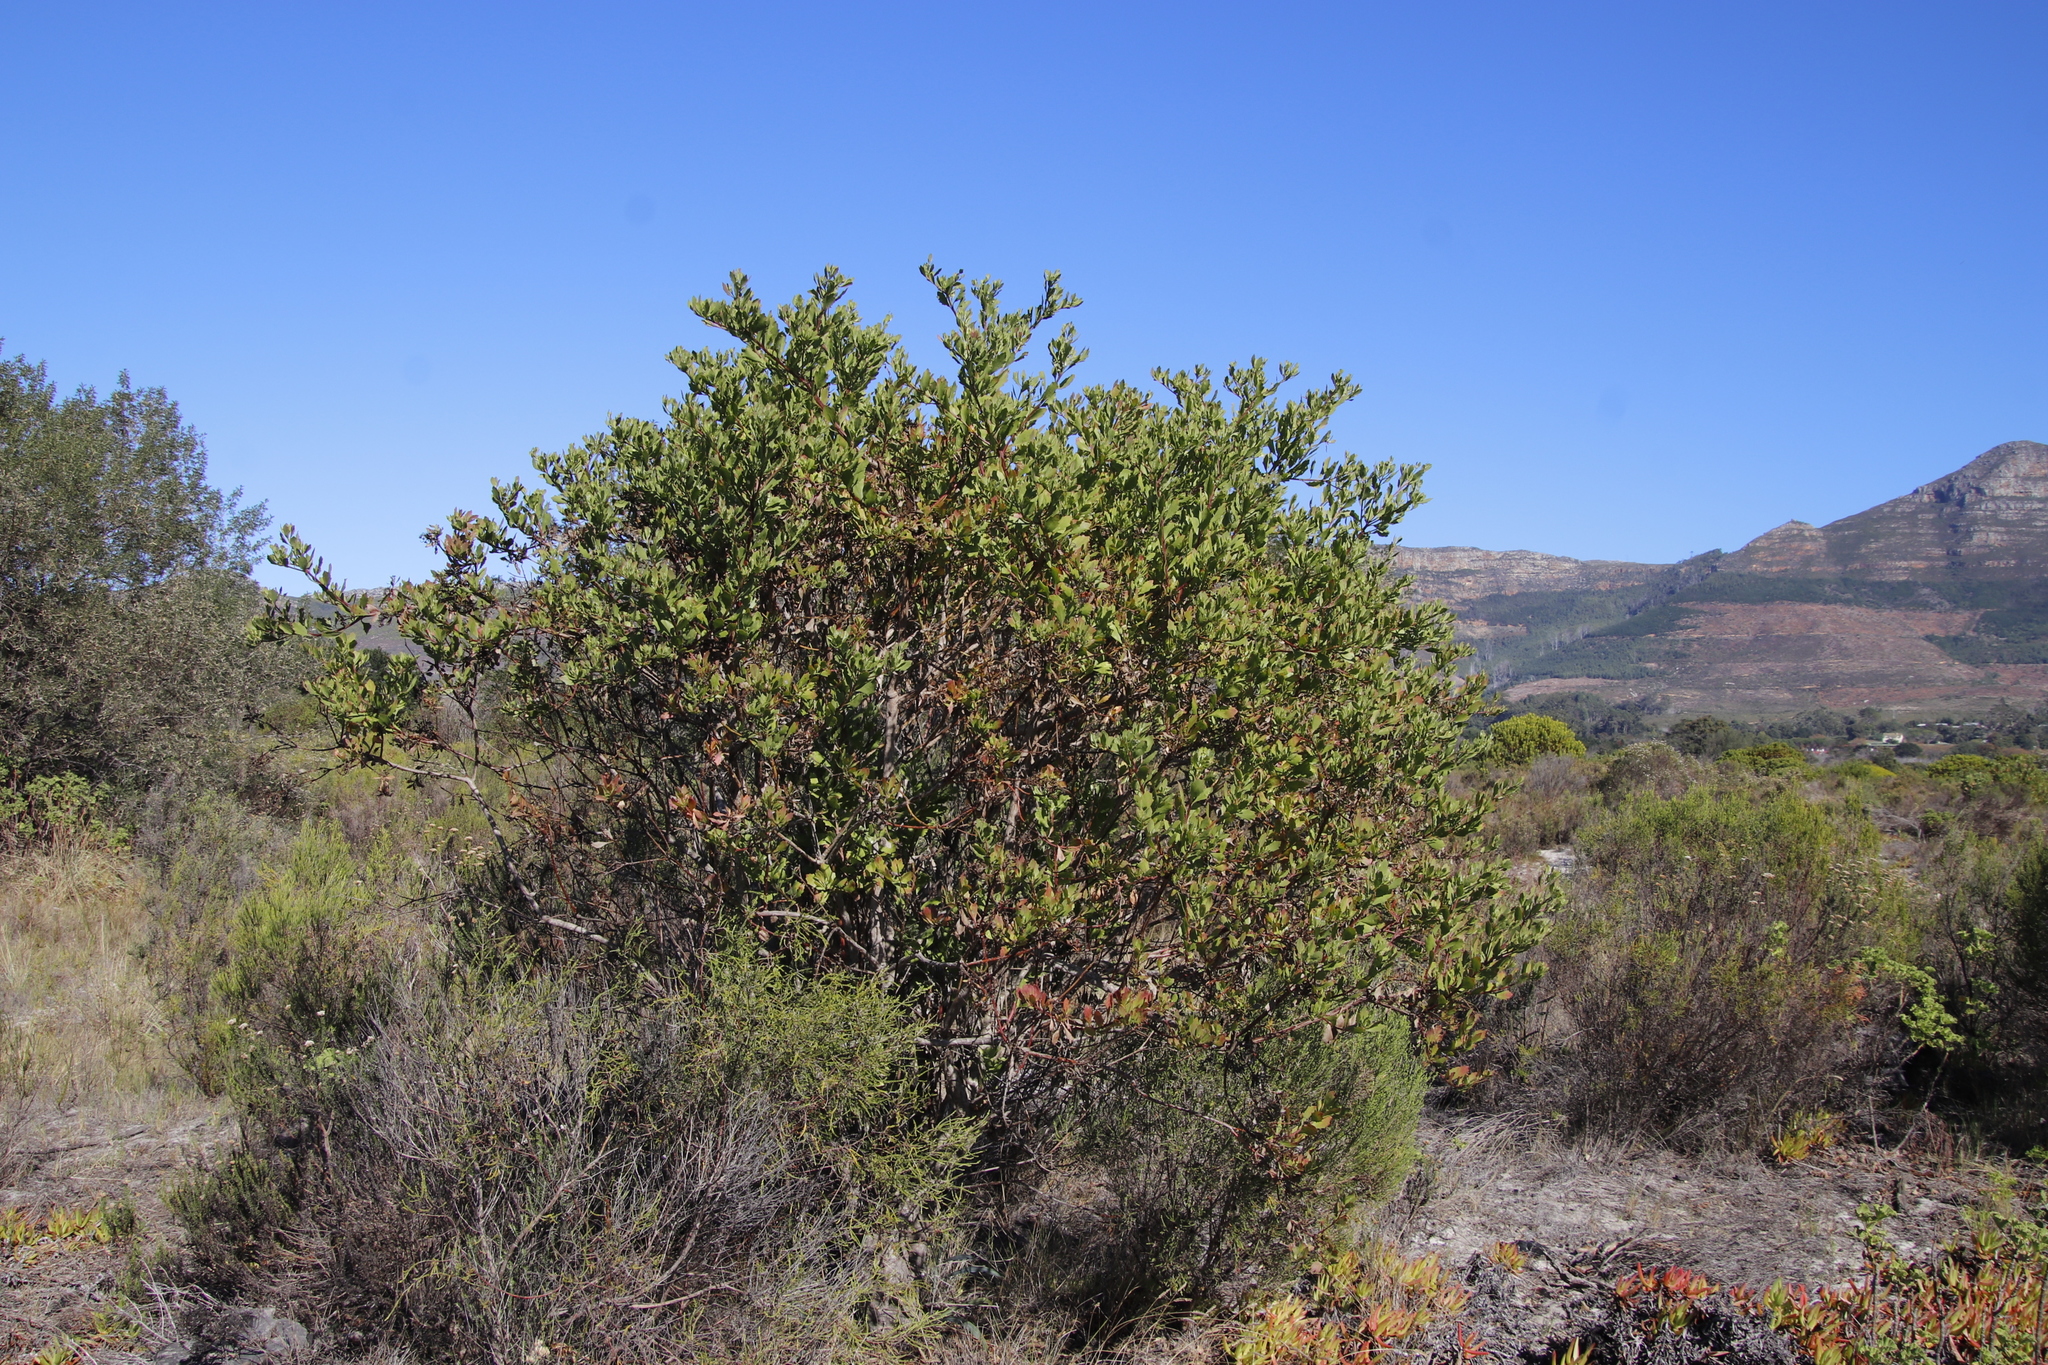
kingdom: Plantae
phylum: Tracheophyta
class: Magnoliopsida
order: Asterales
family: Asteraceae
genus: Osteospermum
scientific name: Osteospermum moniliferum
